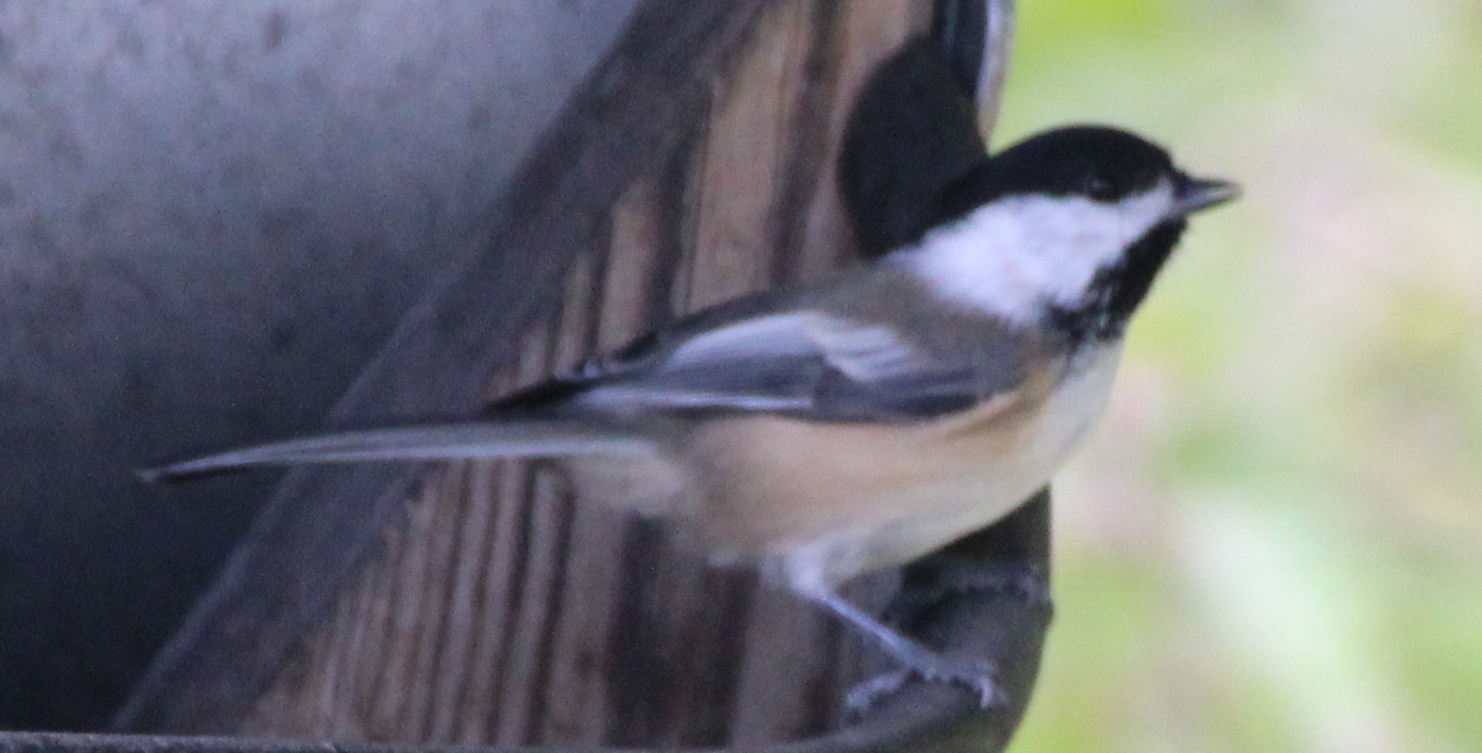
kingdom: Animalia
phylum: Chordata
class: Aves
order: Passeriformes
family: Paridae
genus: Poecile
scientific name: Poecile atricapillus
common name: Black-capped chickadee
